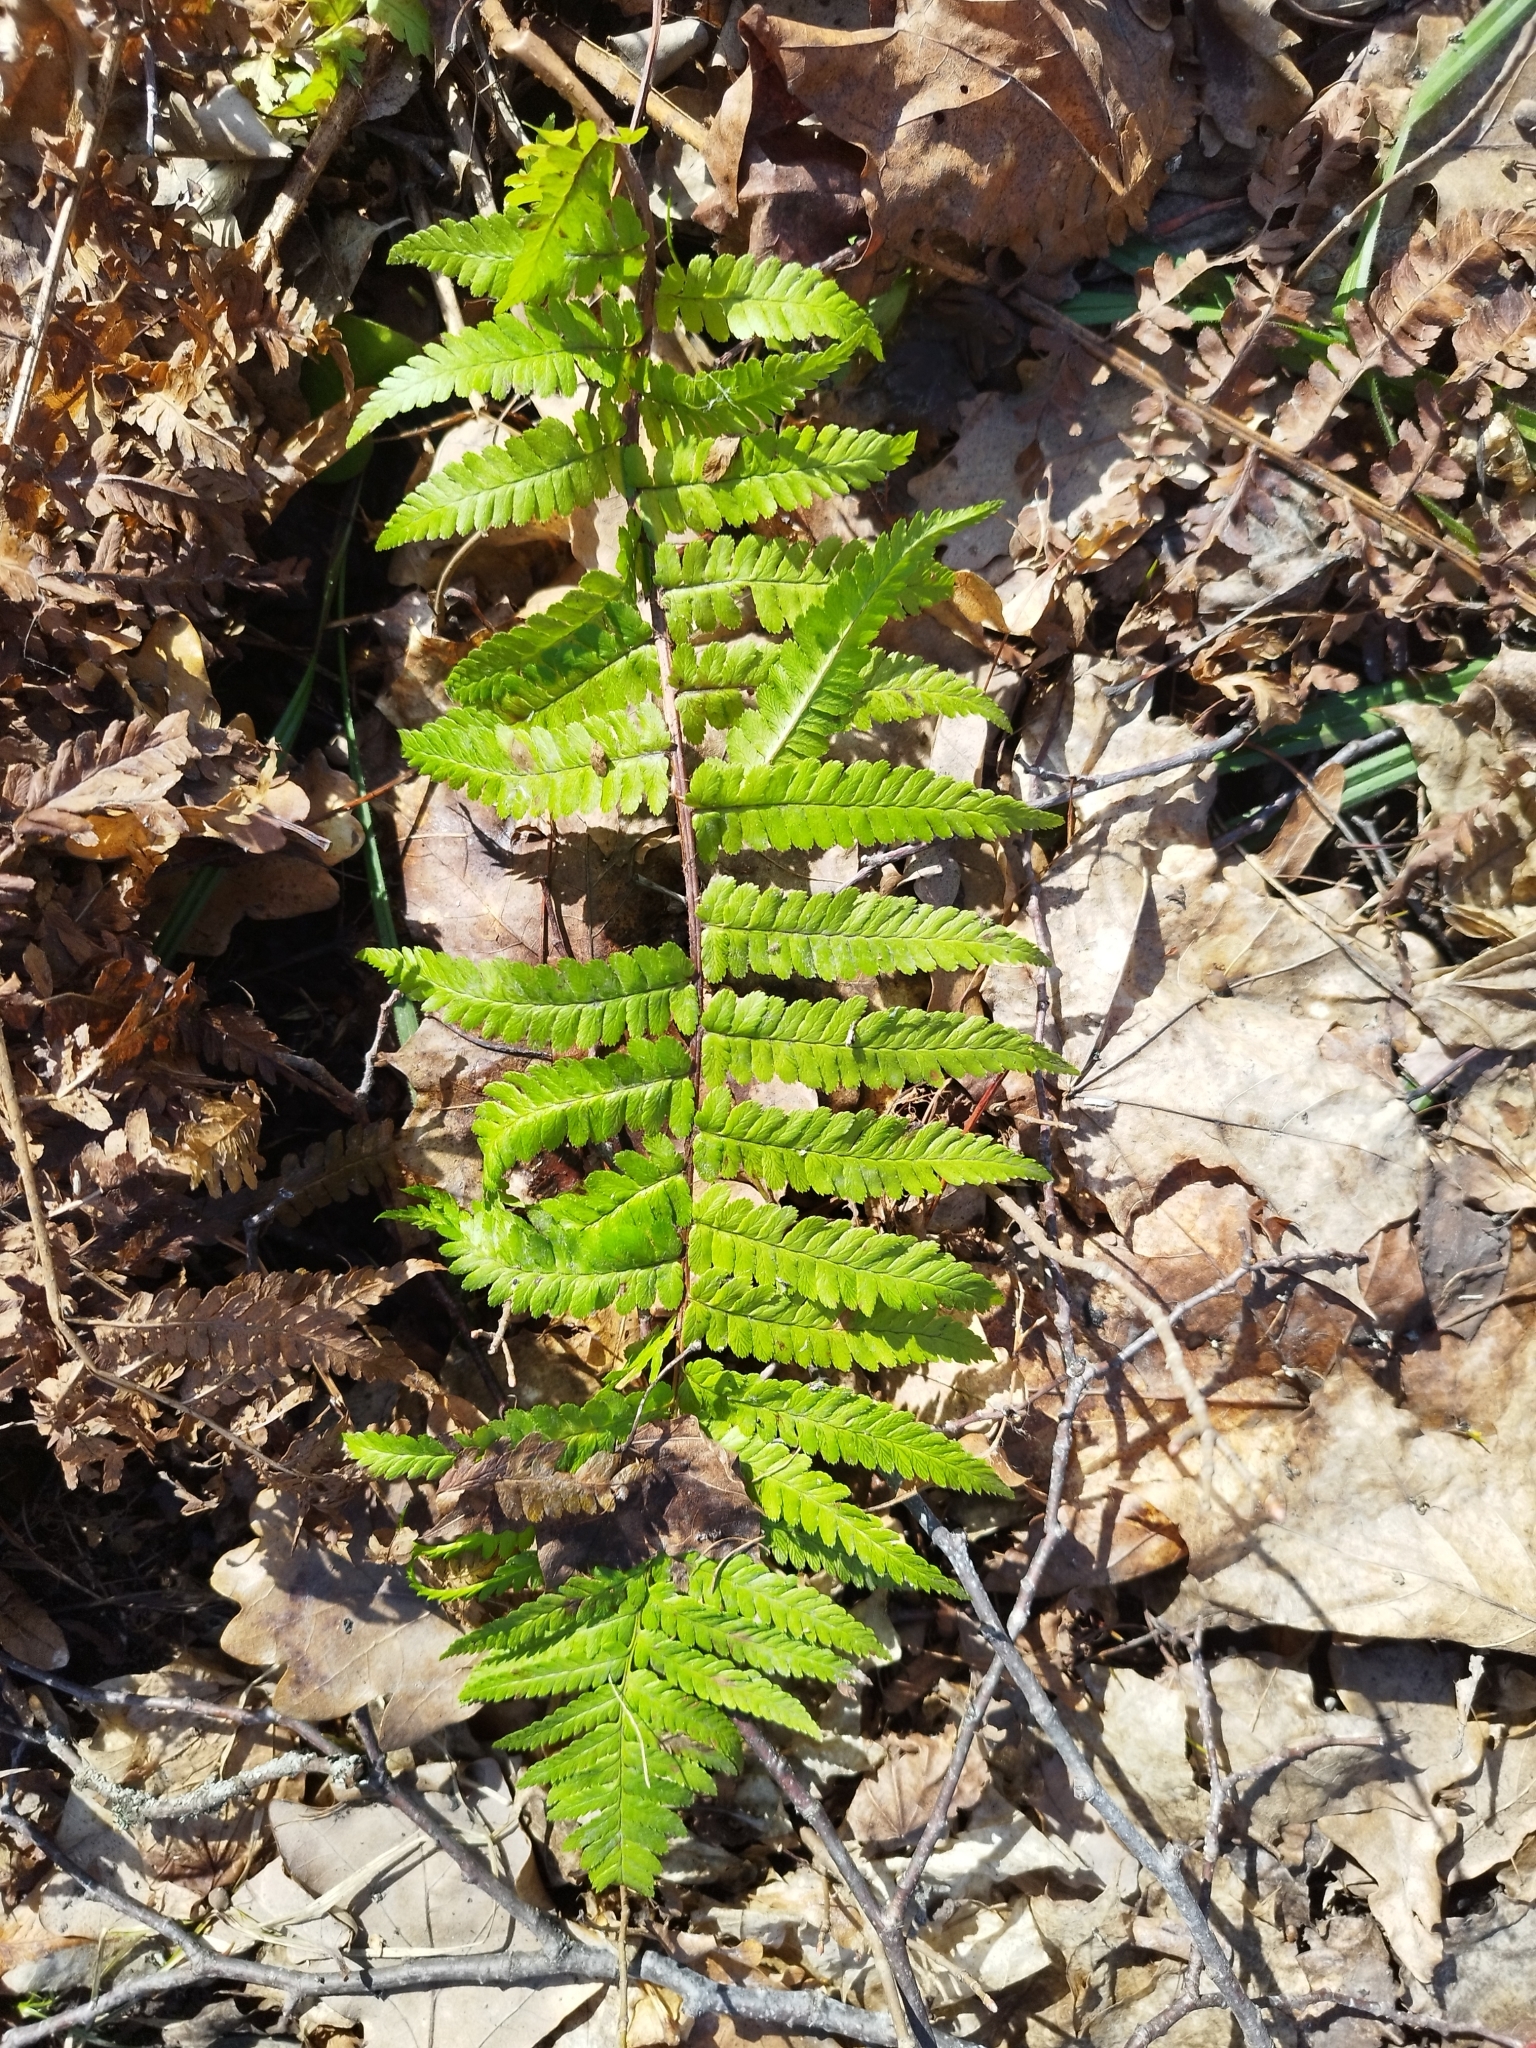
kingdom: Plantae
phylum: Tracheophyta
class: Polypodiopsida
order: Polypodiales
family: Dryopteridaceae
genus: Dryopteris
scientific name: Dryopteris filix-mas
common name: Male fern
